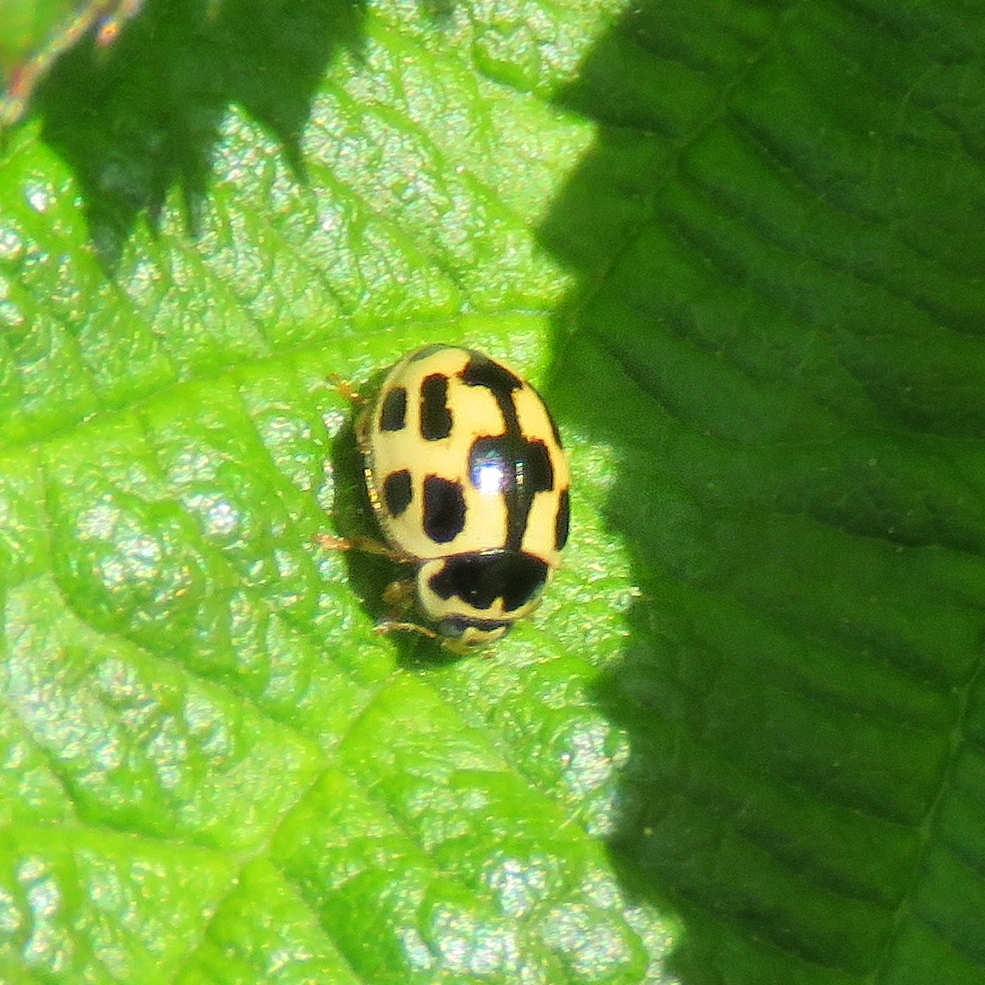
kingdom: Animalia
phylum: Arthropoda
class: Insecta
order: Coleoptera
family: Coccinellidae
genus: Propylaea
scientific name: Propylaea quatuordecimpunctata
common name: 14-spotted ladybird beetle
